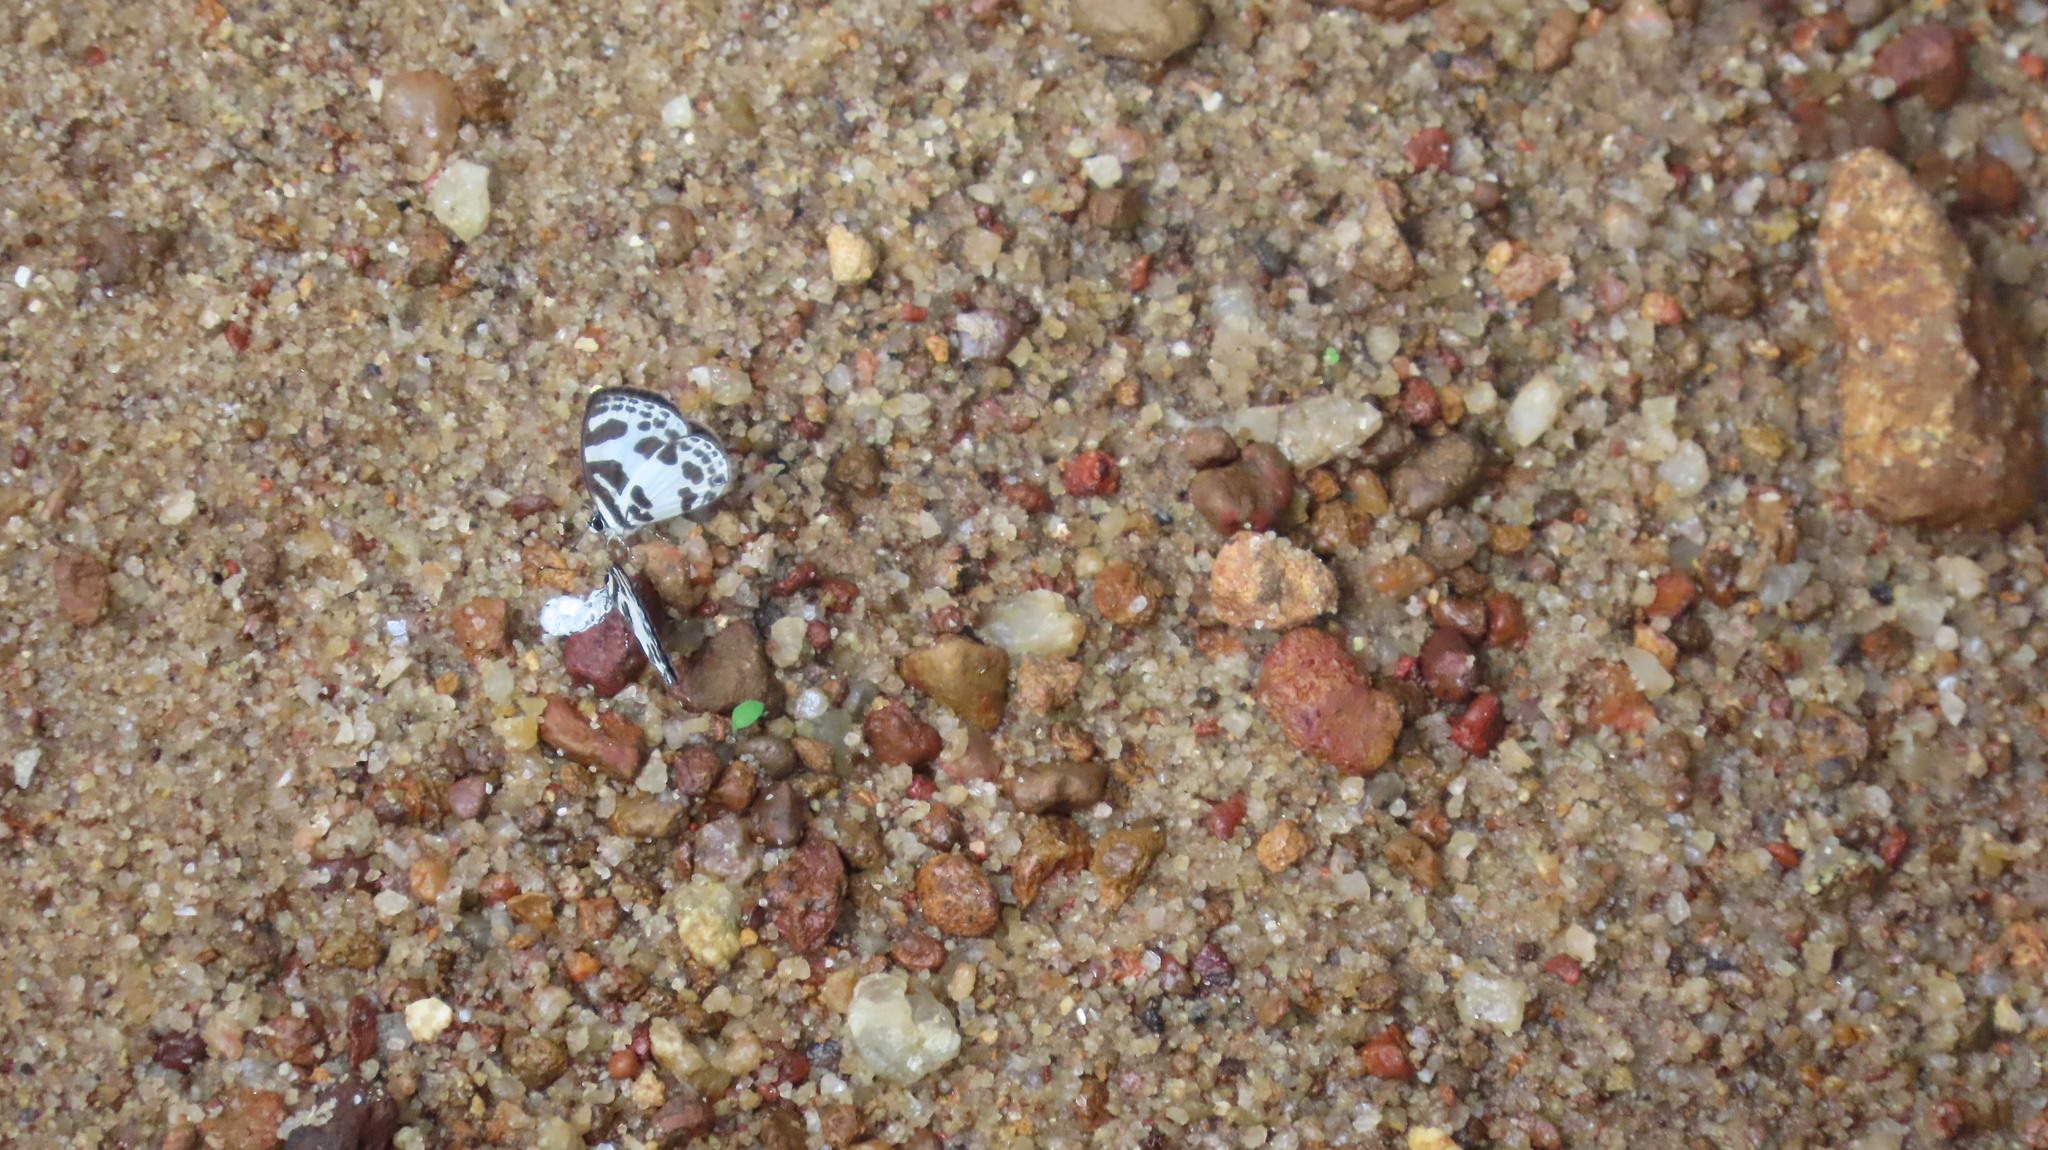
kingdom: Animalia
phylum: Arthropoda
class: Insecta
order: Lepidoptera
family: Lycaenidae
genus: Discolampa
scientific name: Discolampa ethion
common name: Banded blue pierrot
